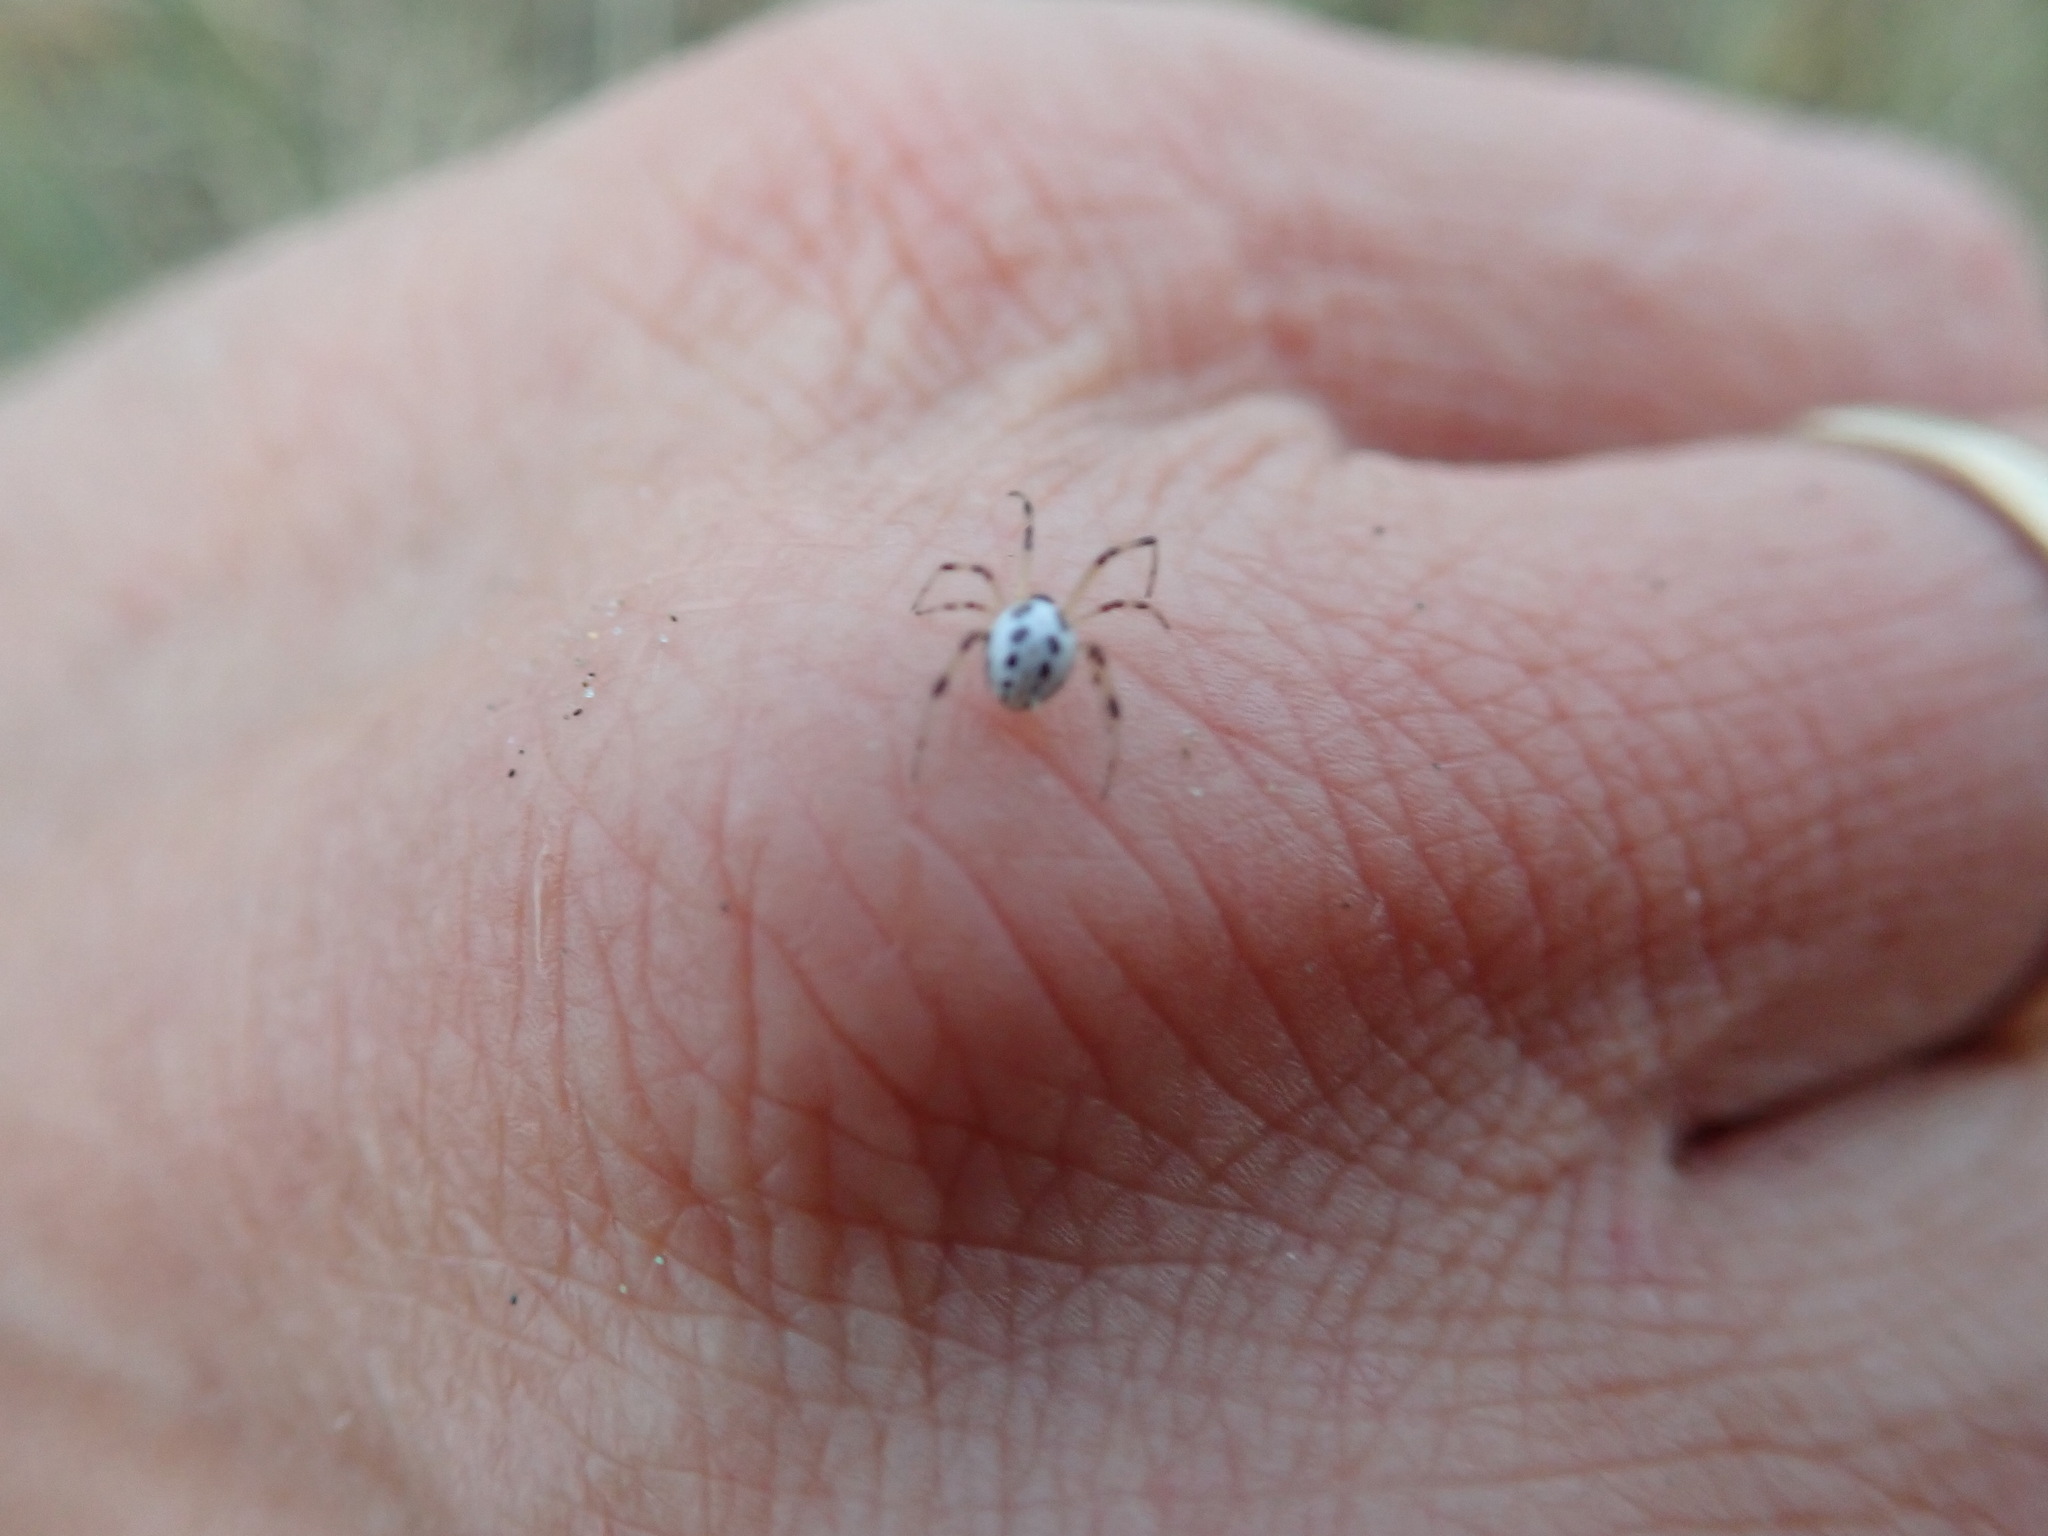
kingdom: Animalia
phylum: Arthropoda
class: Arachnida
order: Araneae
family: Theridiidae
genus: Latrodectus
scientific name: Latrodectus katipo
